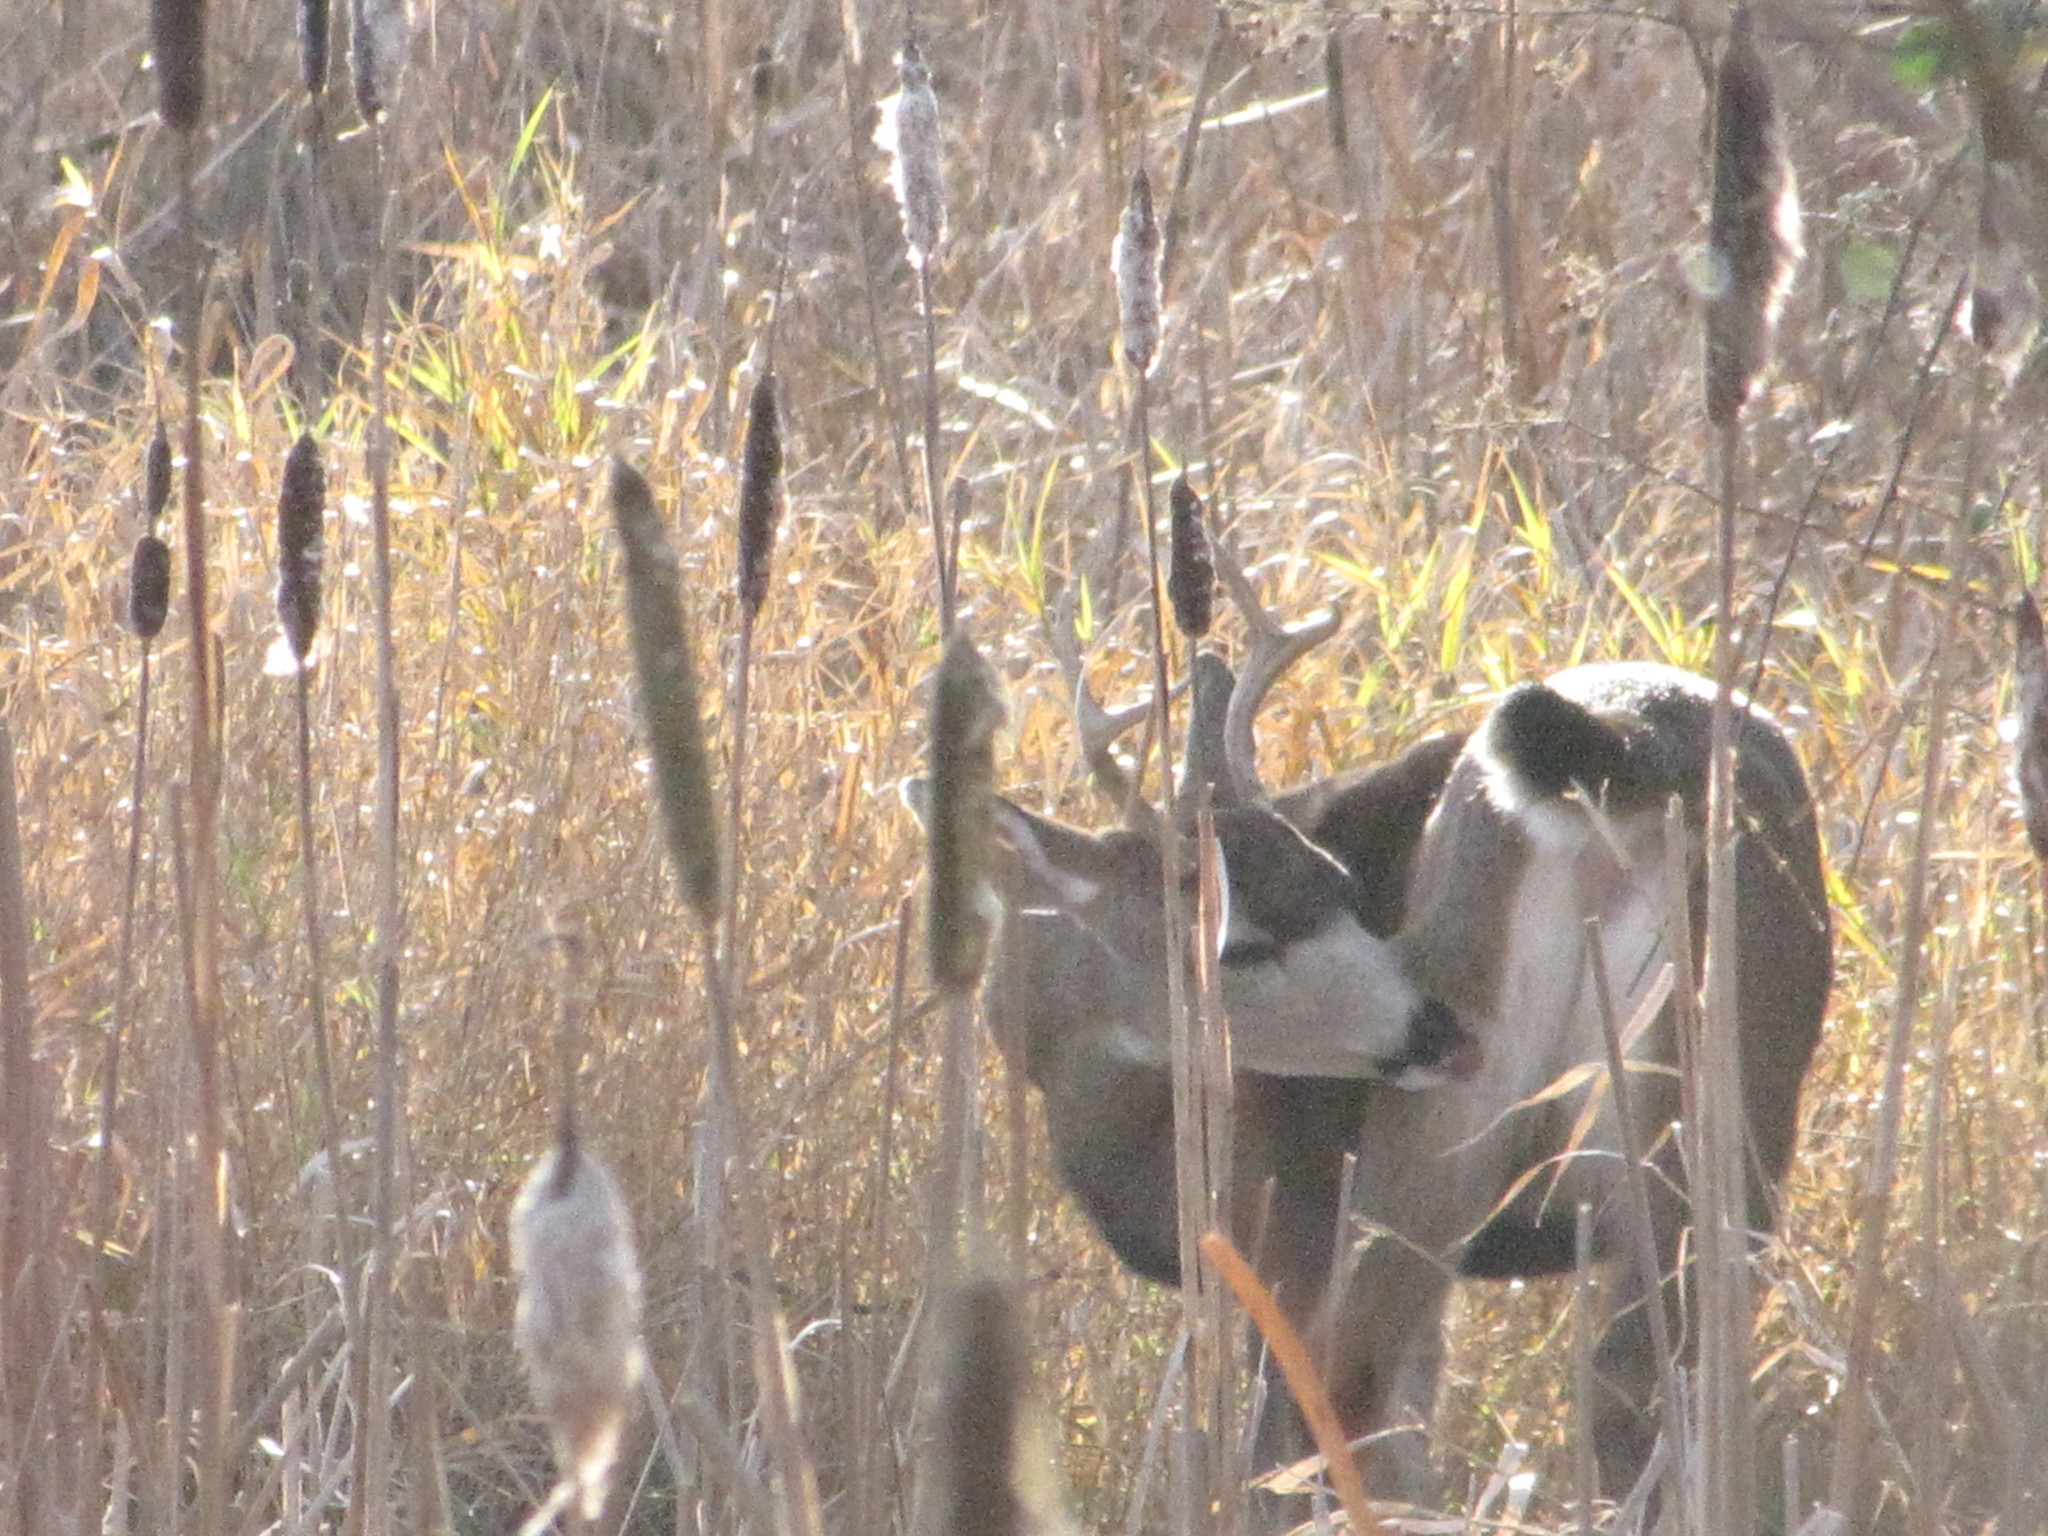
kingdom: Animalia
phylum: Chordata
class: Mammalia
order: Artiodactyla
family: Cervidae
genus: Odocoileus
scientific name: Odocoileus hemionus
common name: Mule deer
